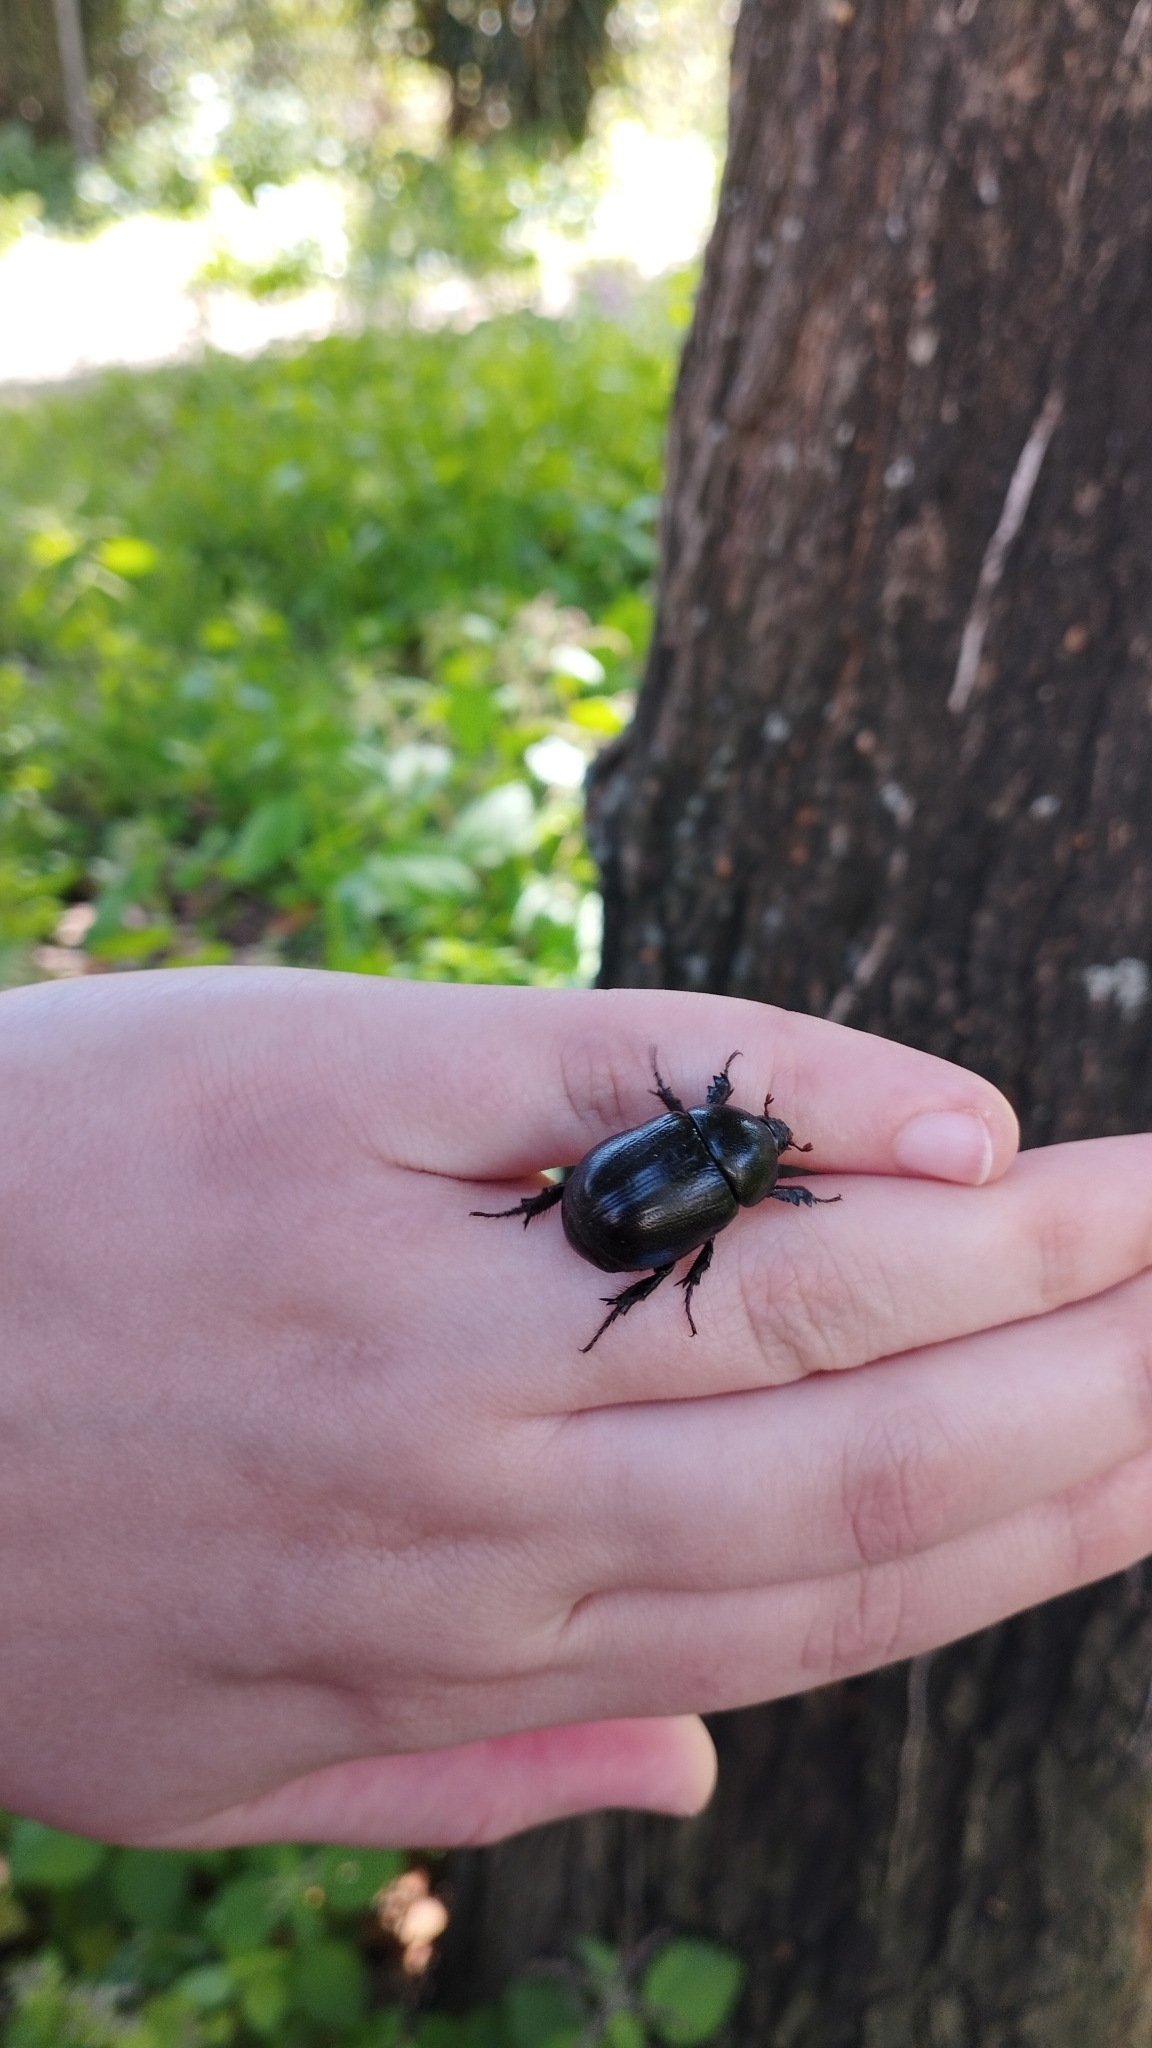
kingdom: Animalia
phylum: Arthropoda
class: Insecta
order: Coleoptera
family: Scarabaeidae
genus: Pentodon
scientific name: Pentodon bidens
